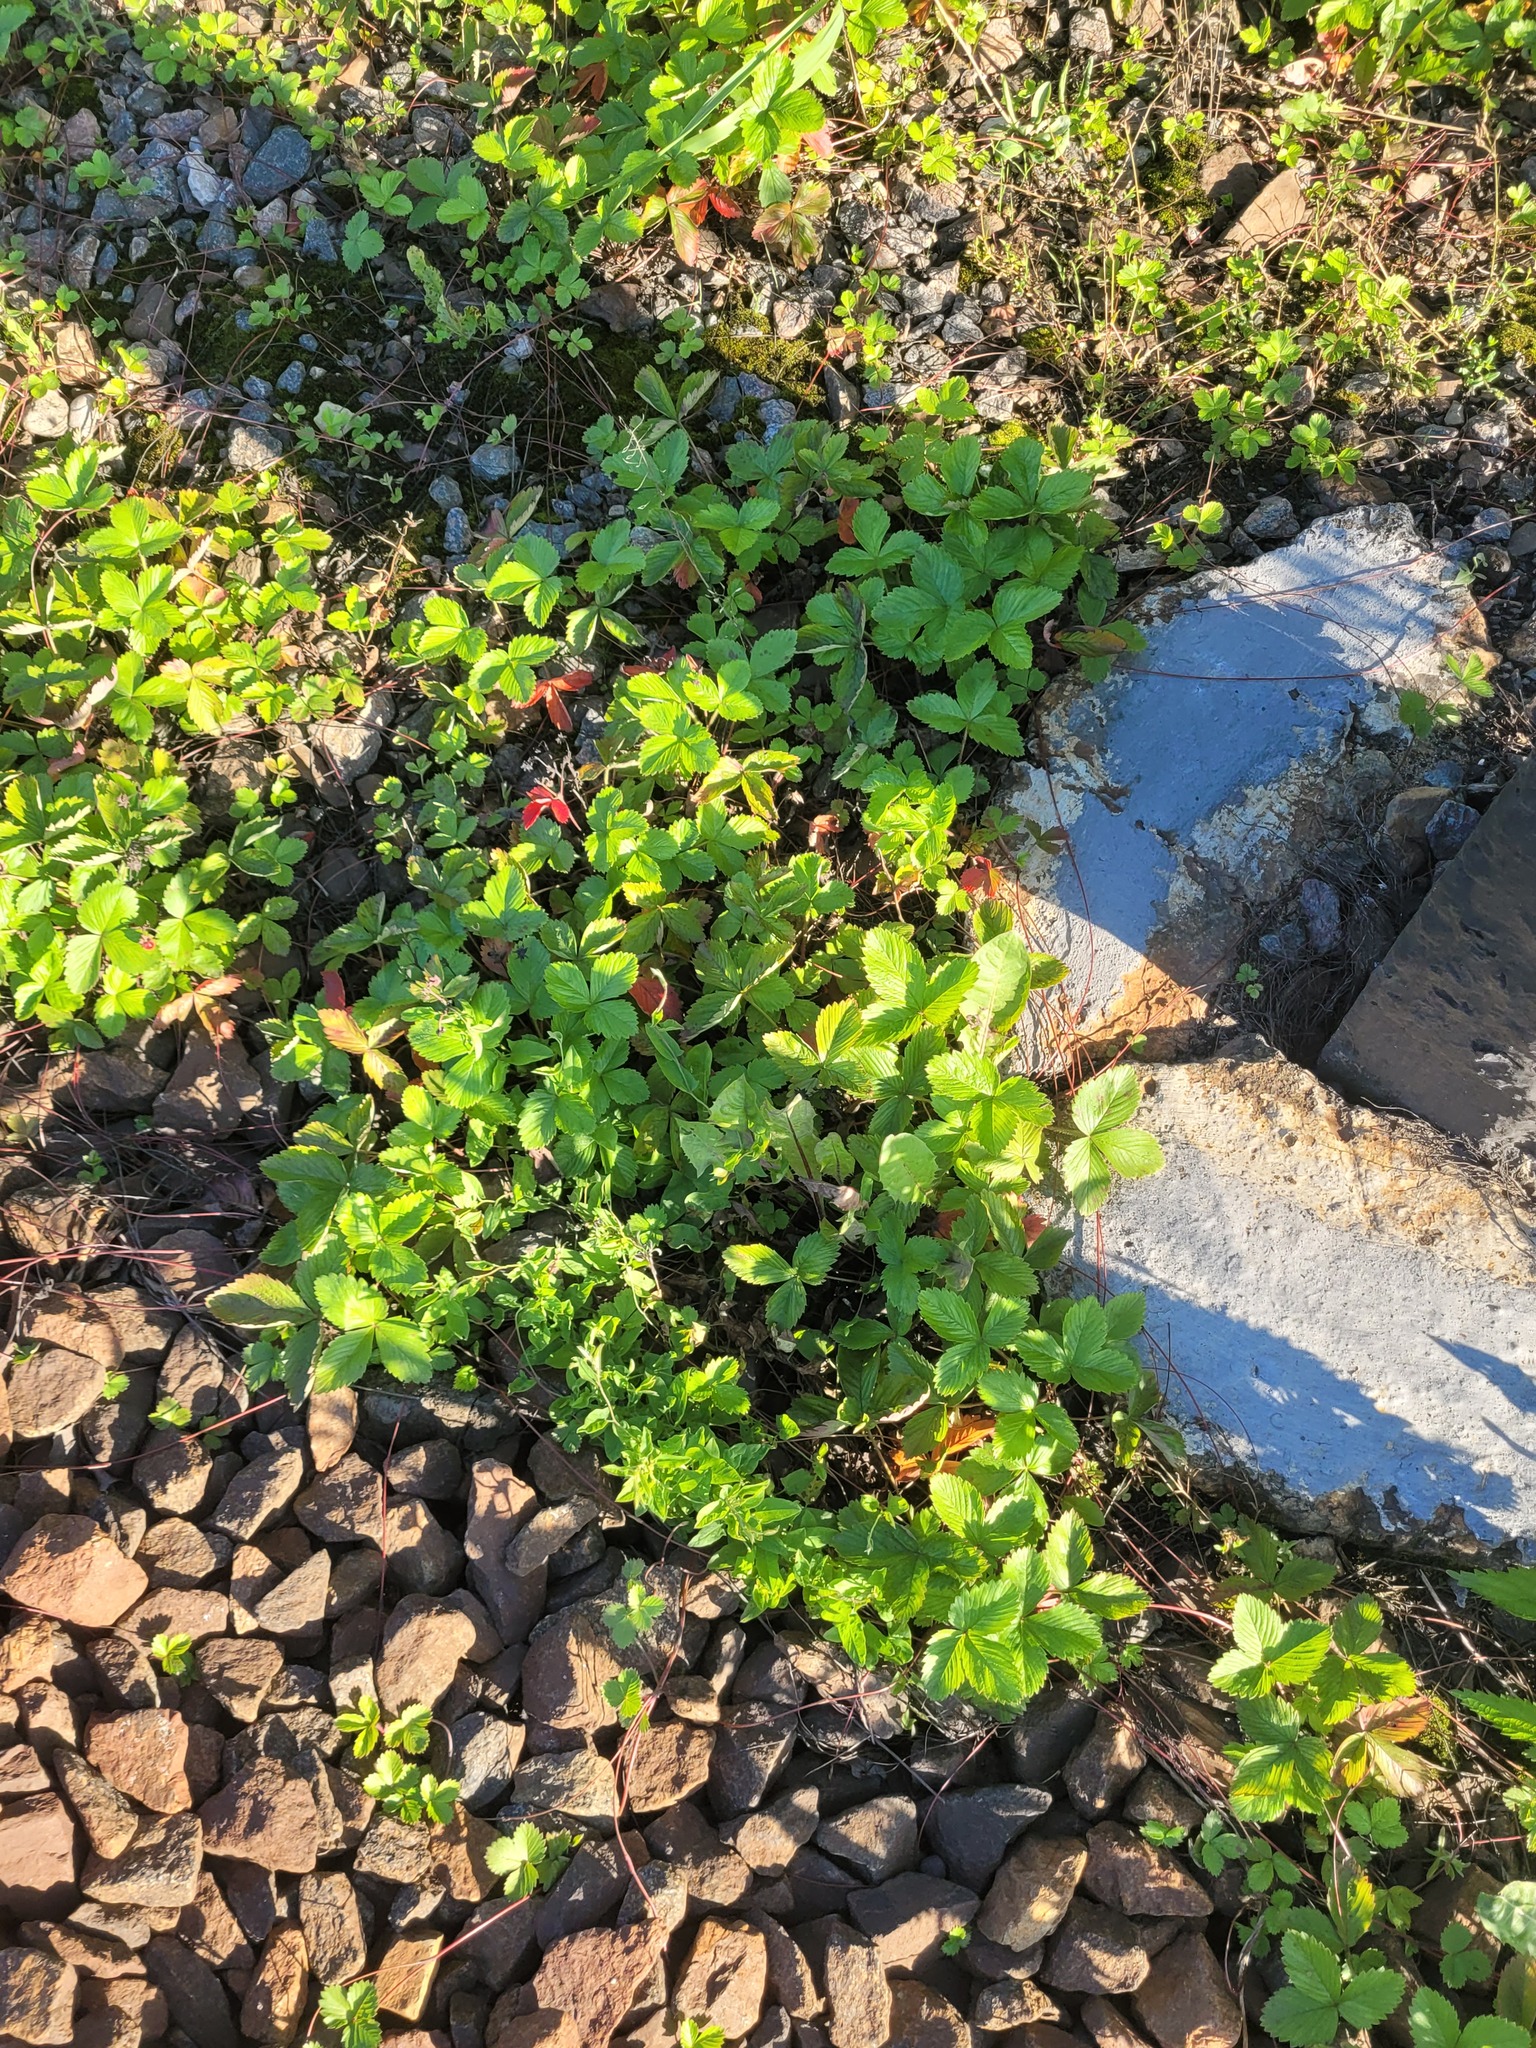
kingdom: Plantae
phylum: Tracheophyta
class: Magnoliopsida
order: Rosales
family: Rosaceae
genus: Fragaria
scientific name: Fragaria vesca
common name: Wild strawberry
